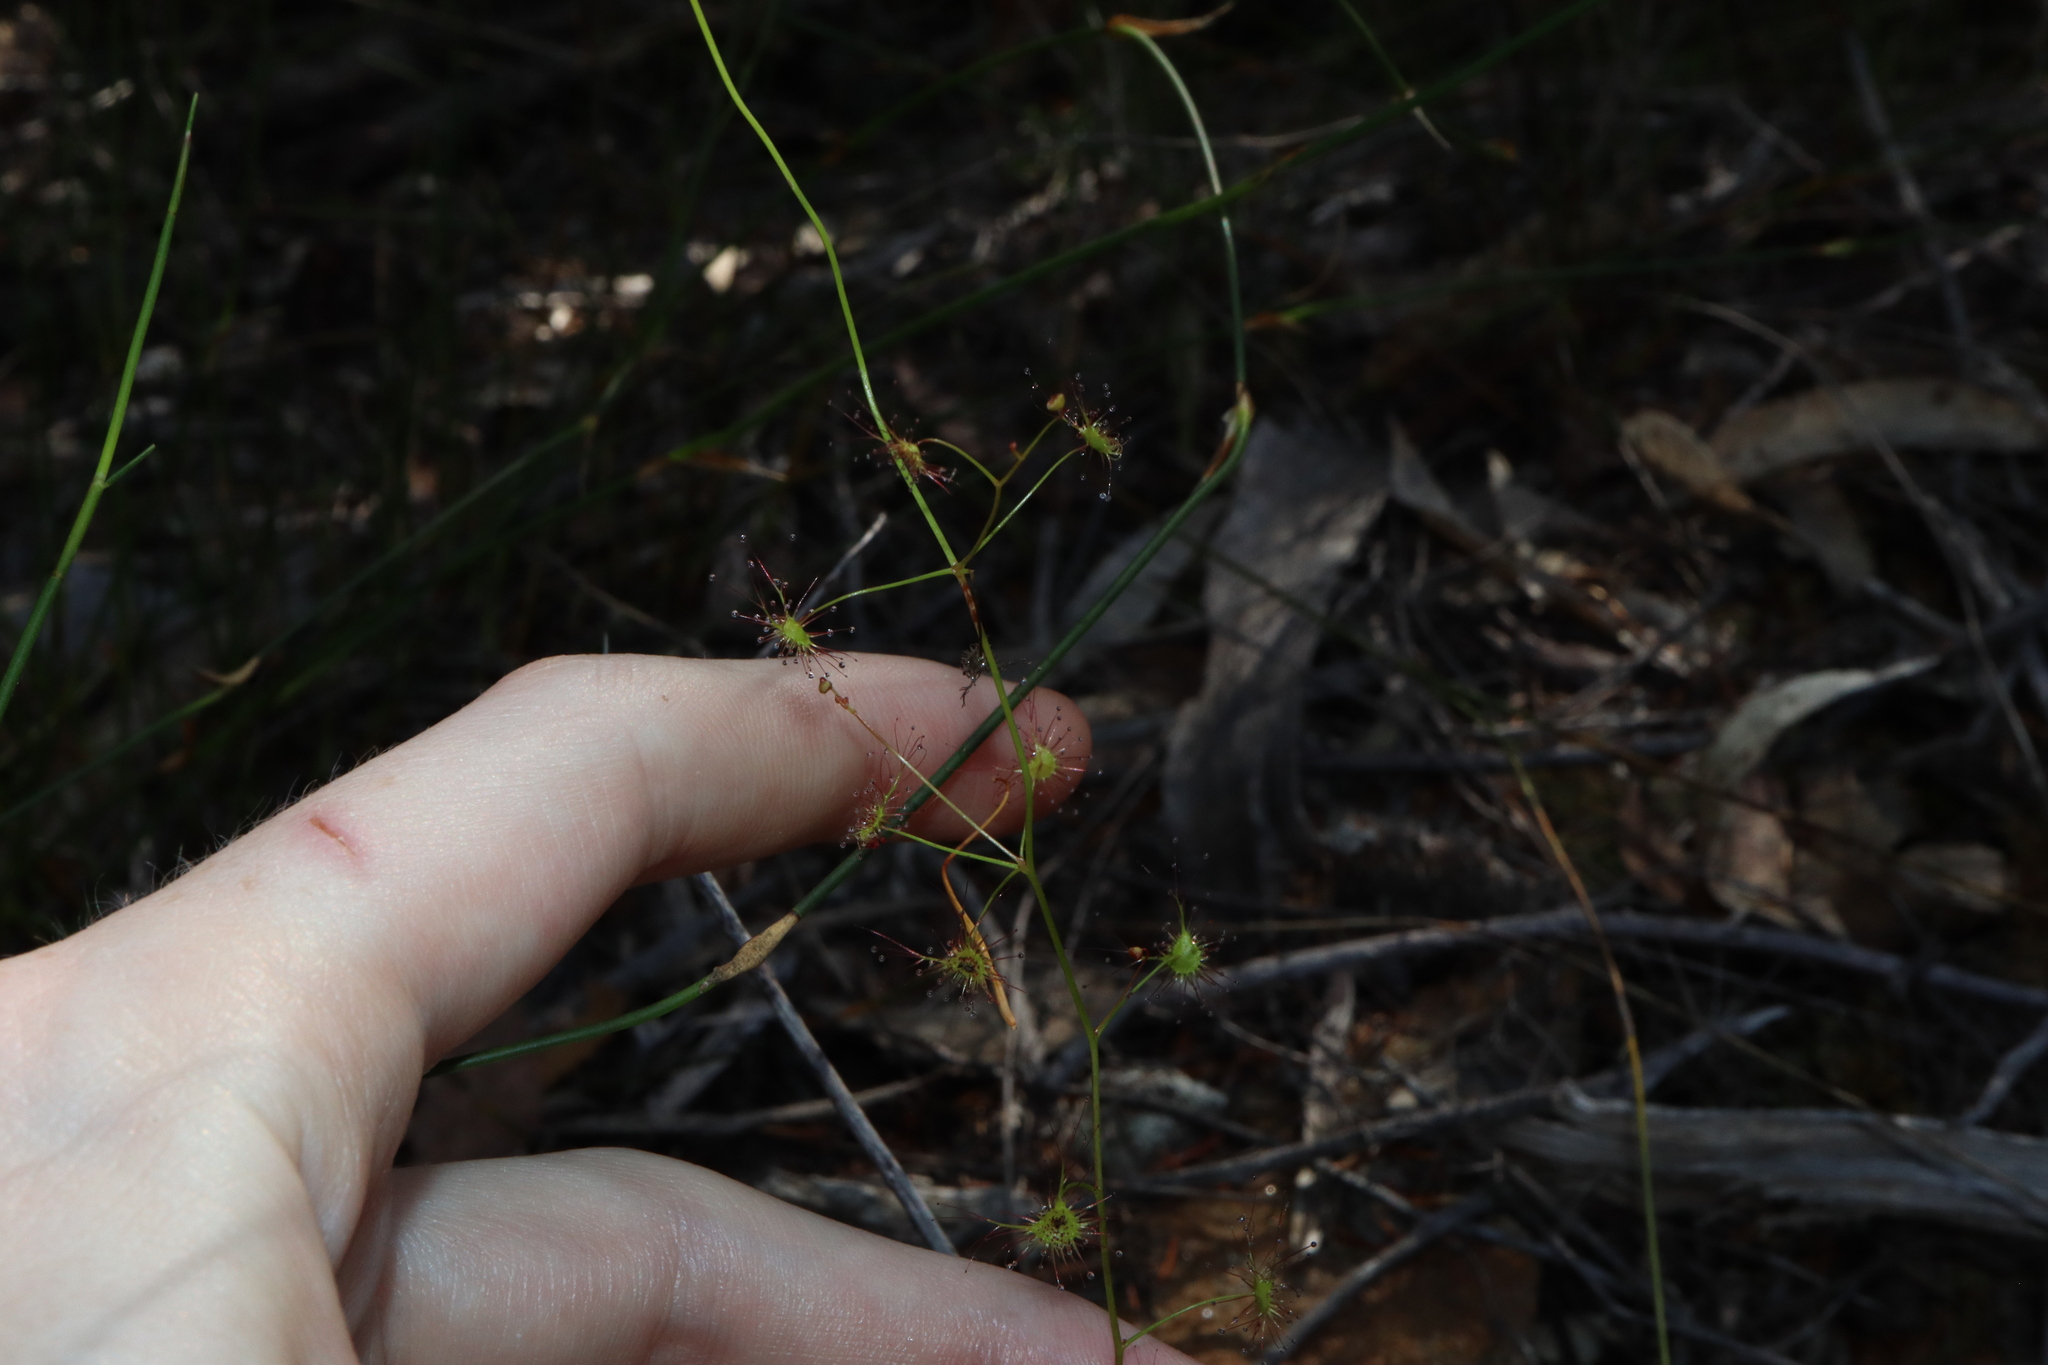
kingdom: Plantae
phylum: Tracheophyta
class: Magnoliopsida
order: Caryophyllales
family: Droseraceae
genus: Drosera
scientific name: Drosera peltata
